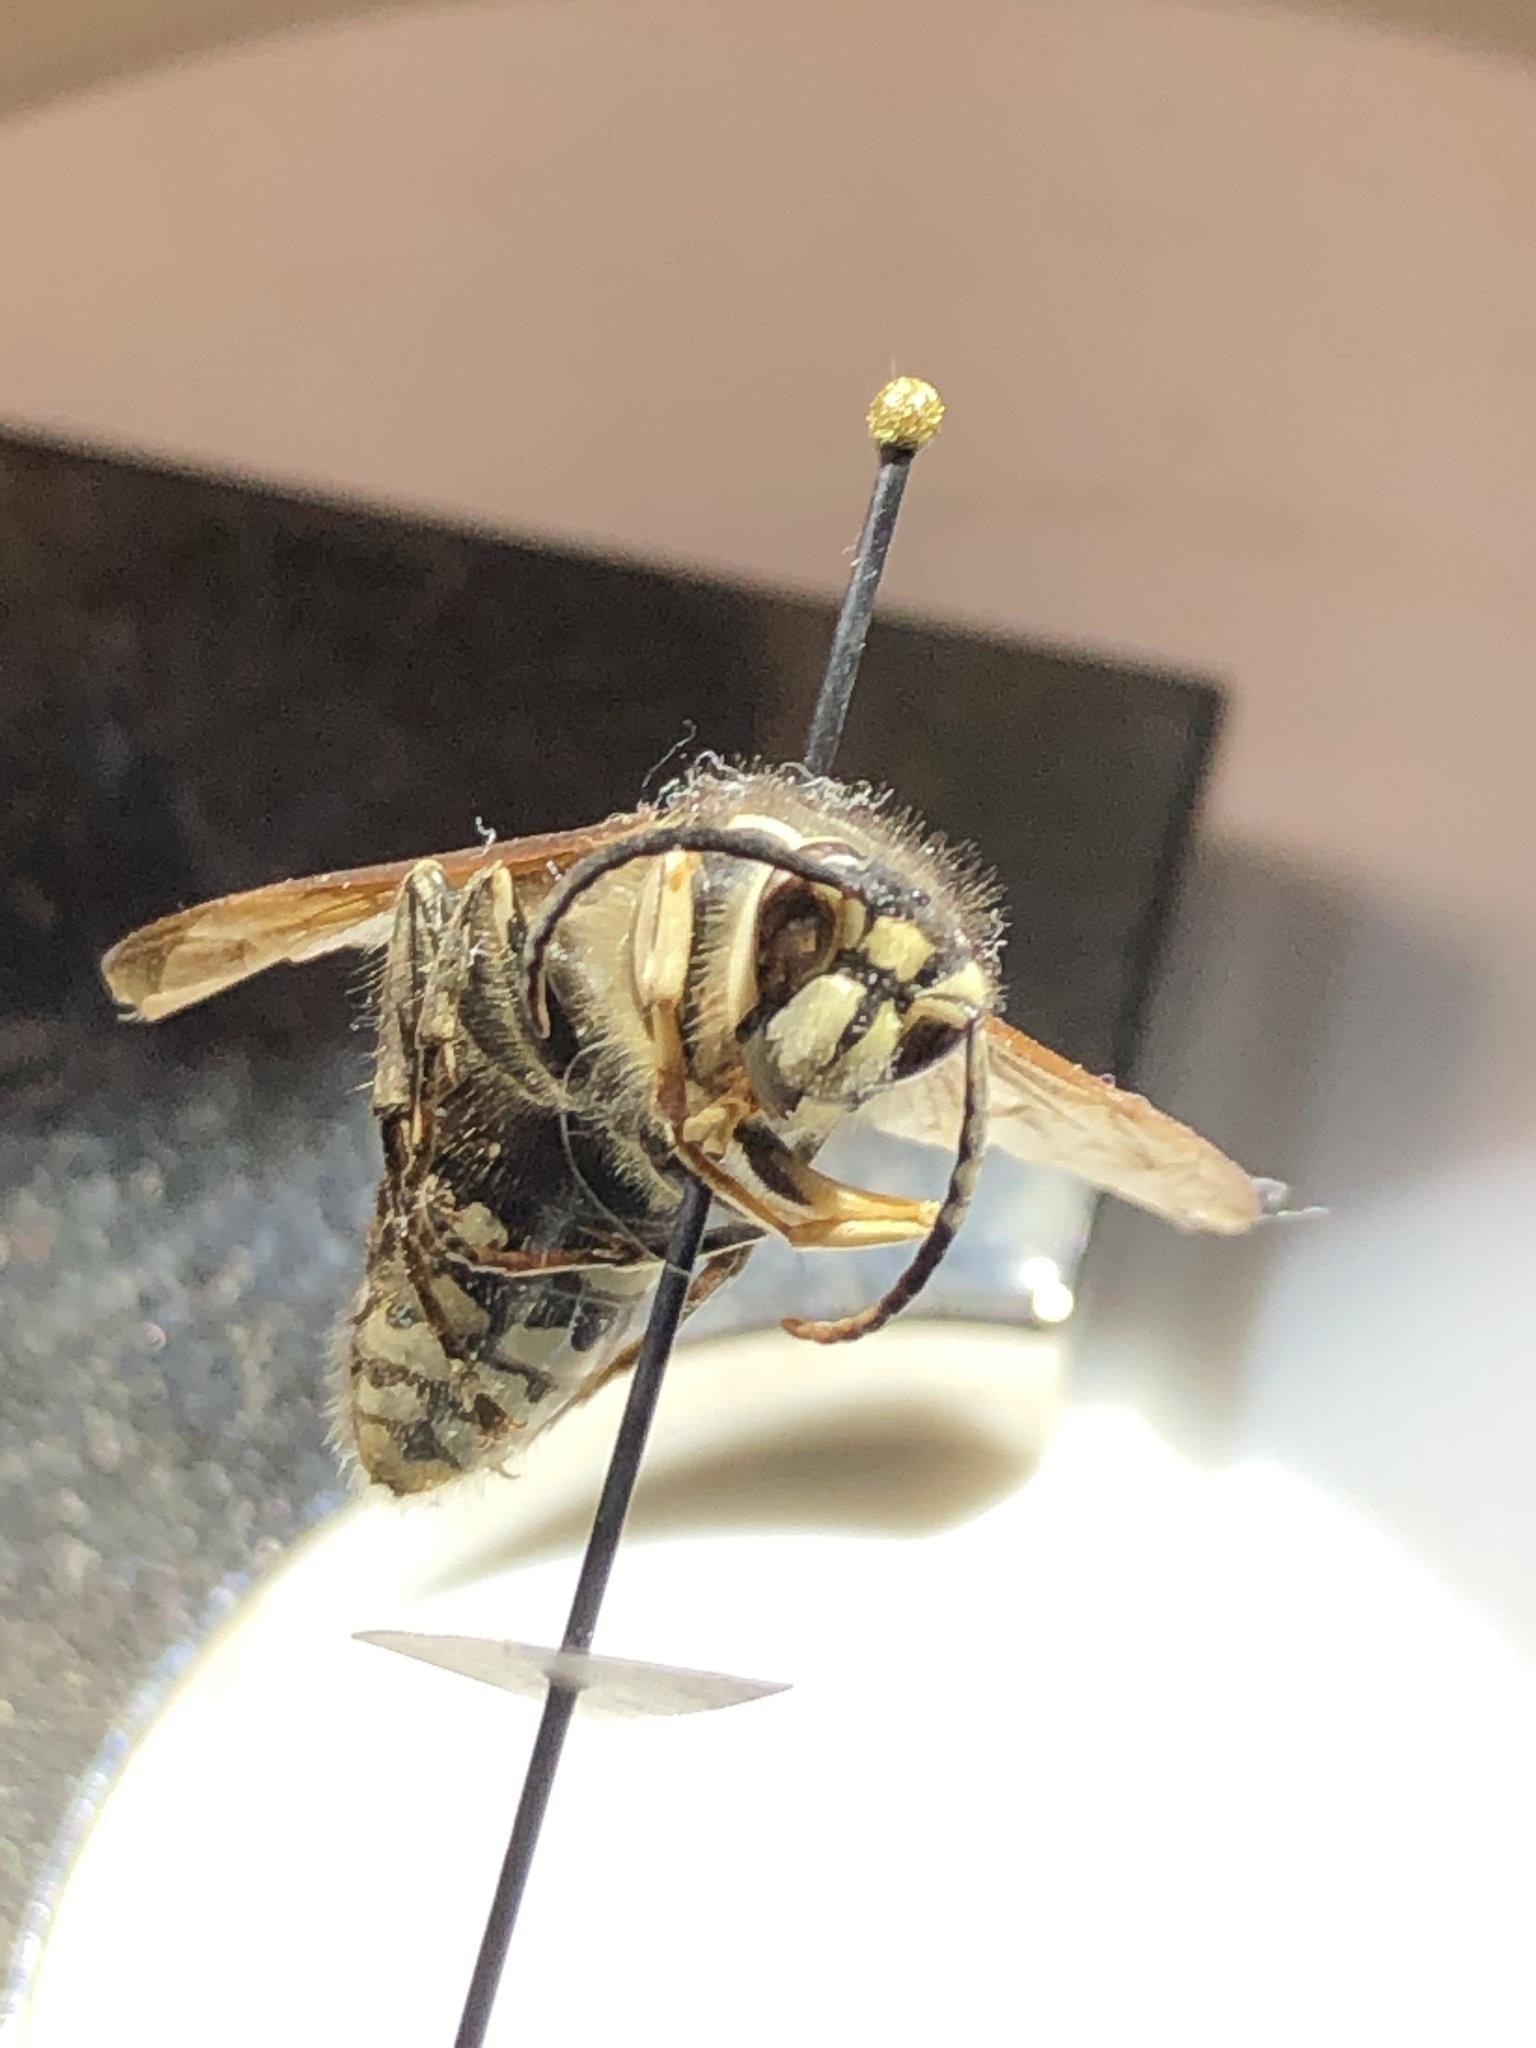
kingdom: Animalia
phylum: Arthropoda
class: Insecta
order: Hymenoptera
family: Vespidae
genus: Dolichovespula
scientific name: Dolichovespula maculata
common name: Bald-faced hornet
